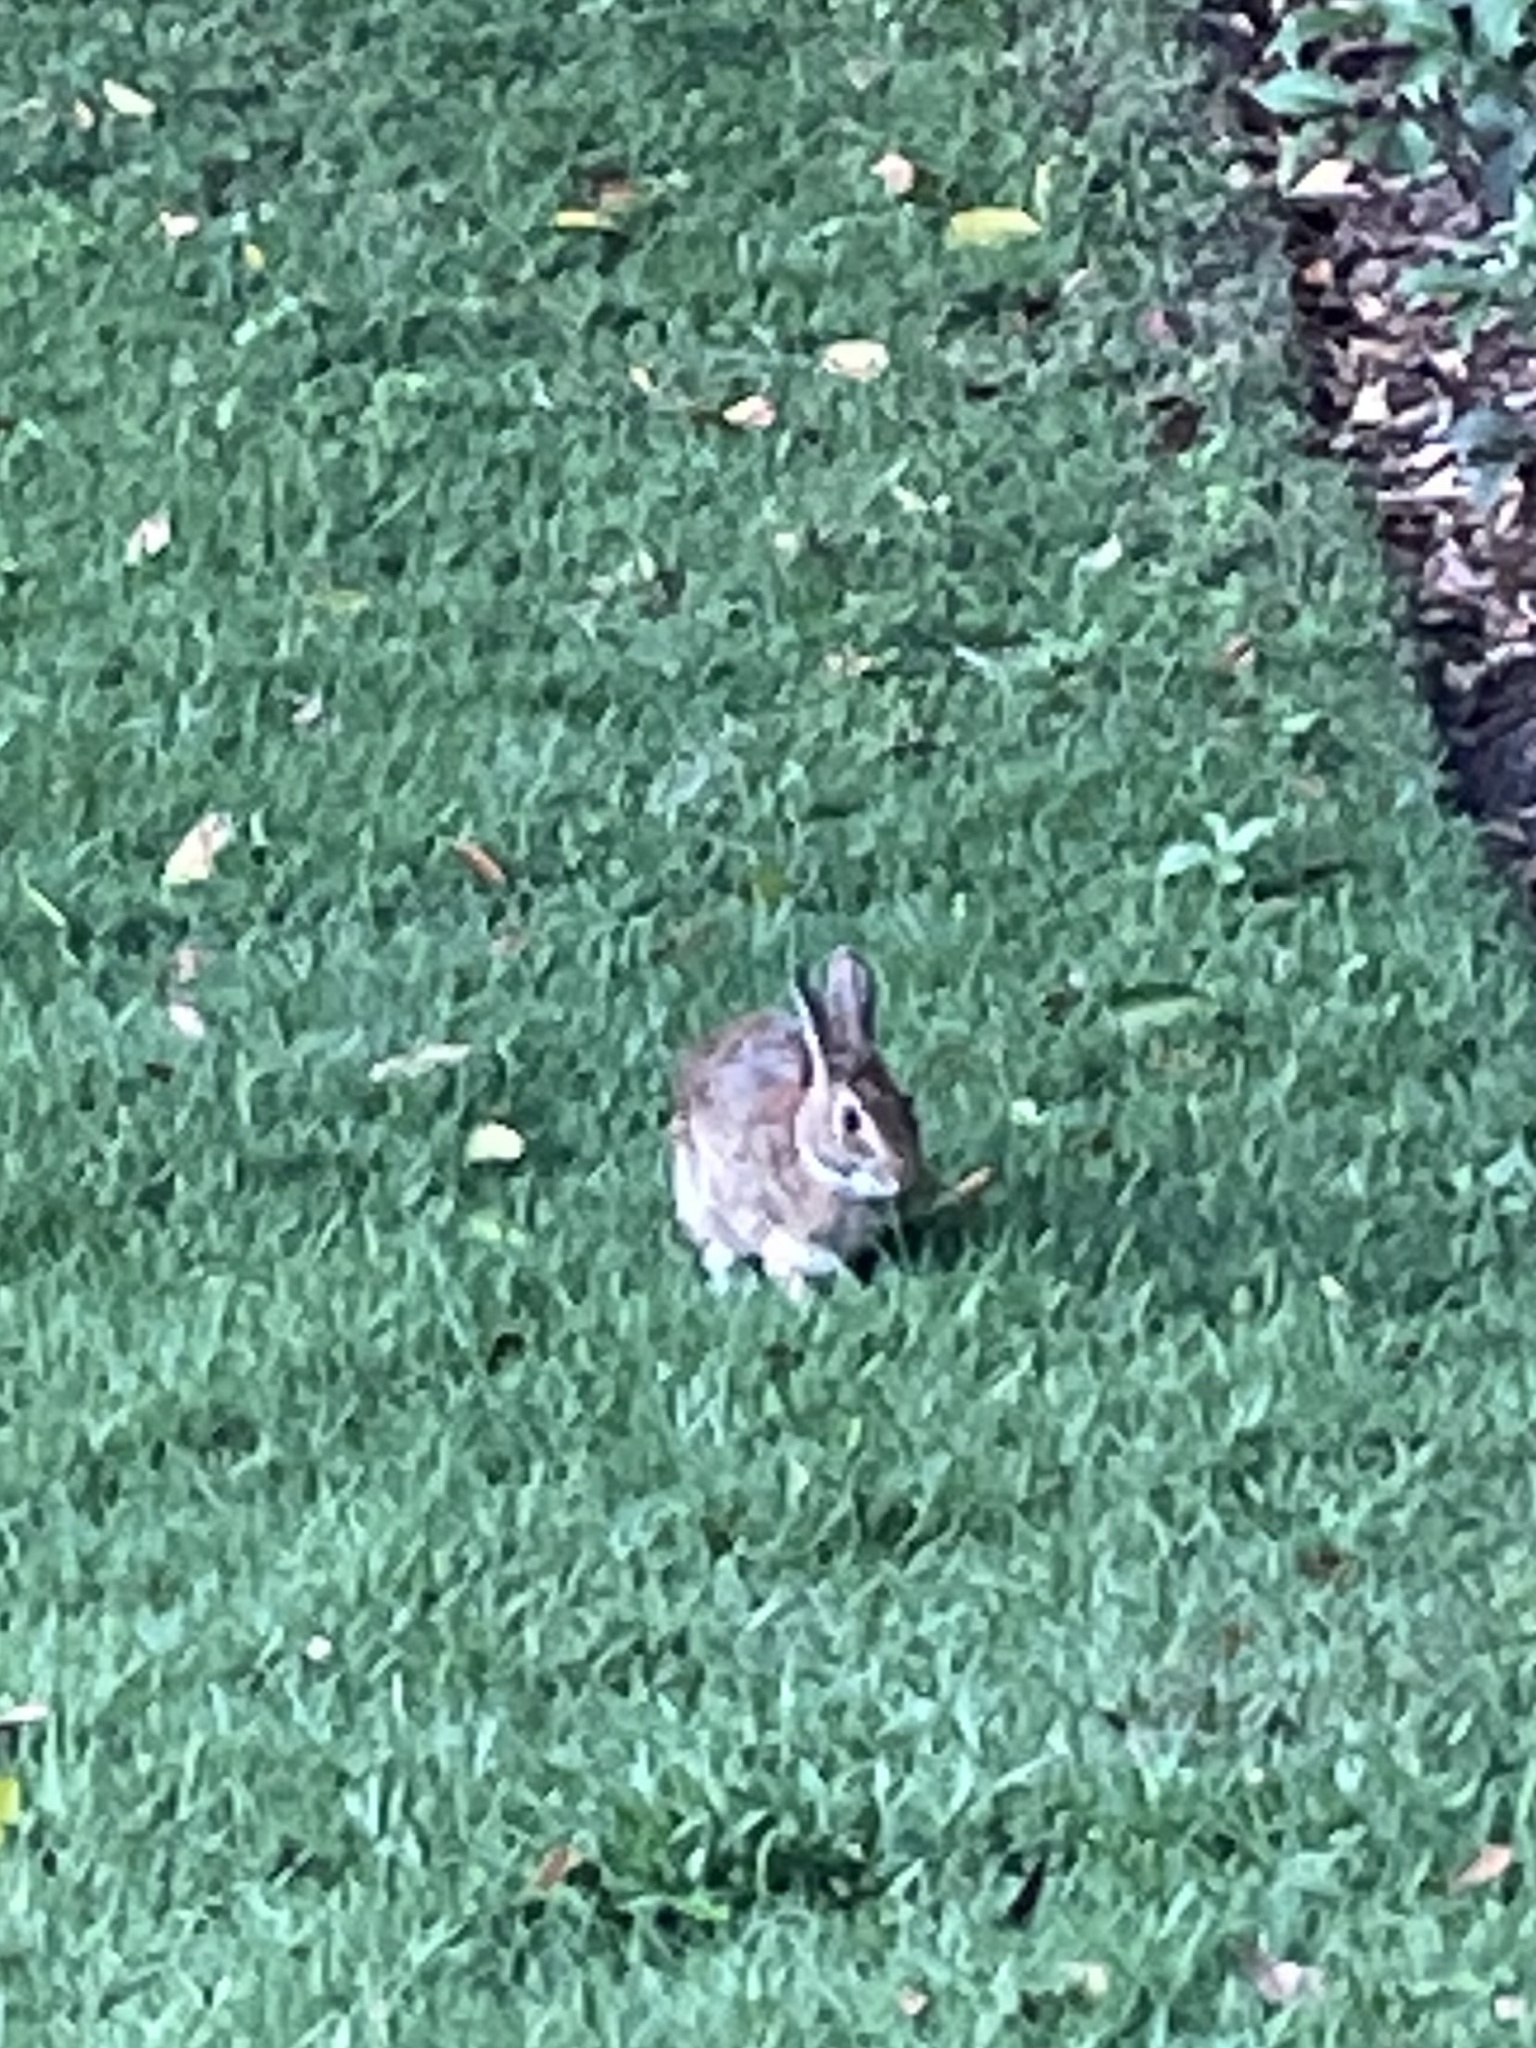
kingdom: Animalia
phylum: Chordata
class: Mammalia
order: Lagomorpha
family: Leporidae
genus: Sylvilagus
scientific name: Sylvilagus floridanus
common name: Eastern cottontail
